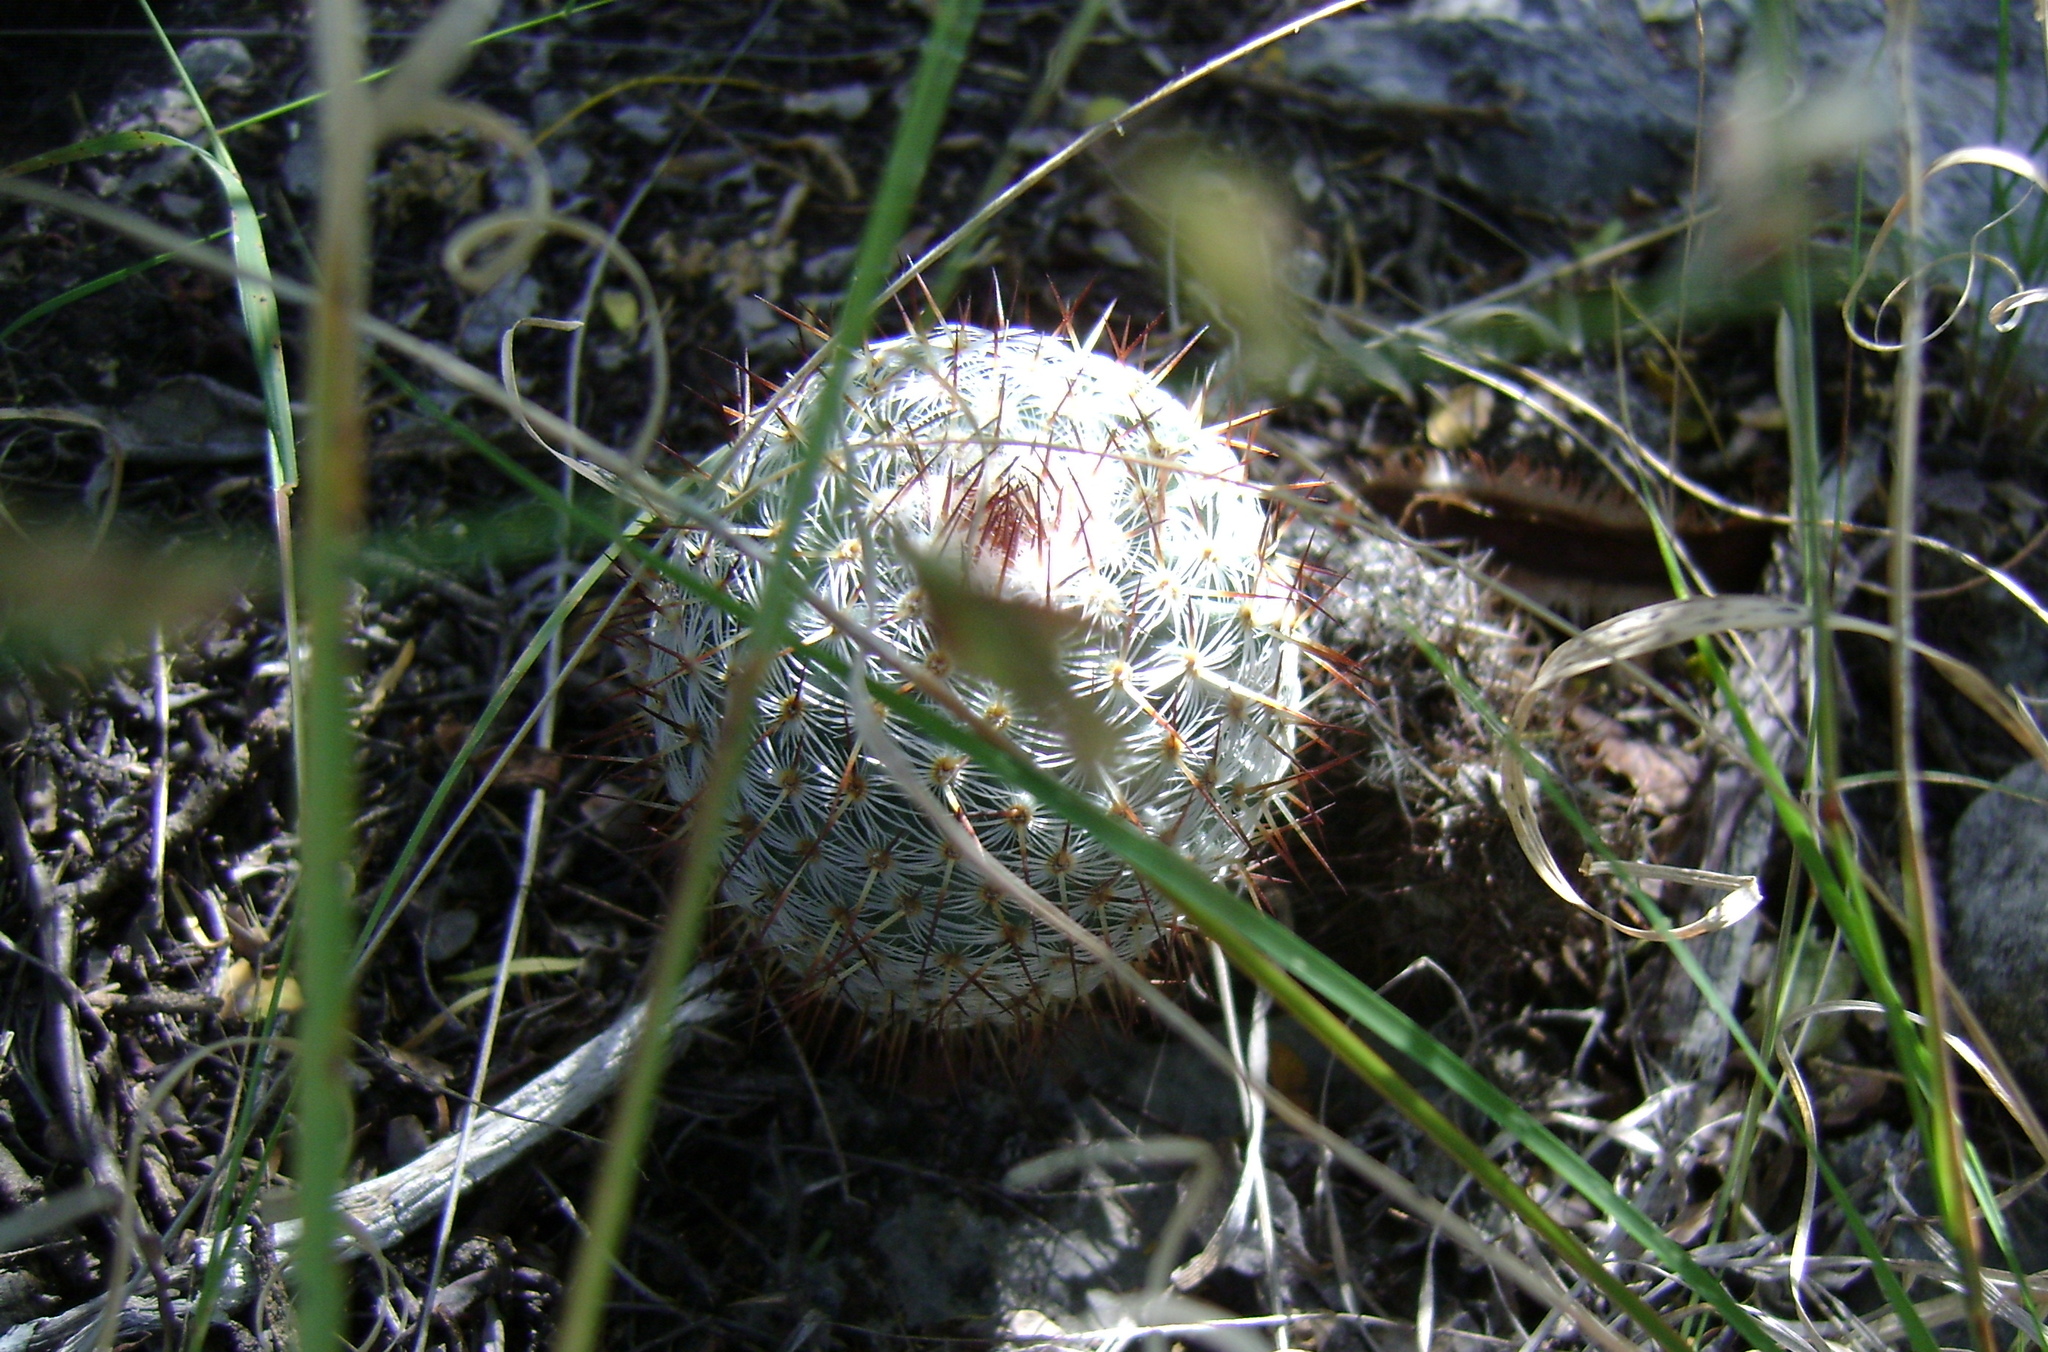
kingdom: Plantae
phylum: Tracheophyta
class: Magnoliopsida
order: Caryophyllales
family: Cactaceae
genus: Mammillaria
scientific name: Mammillaria haageana
